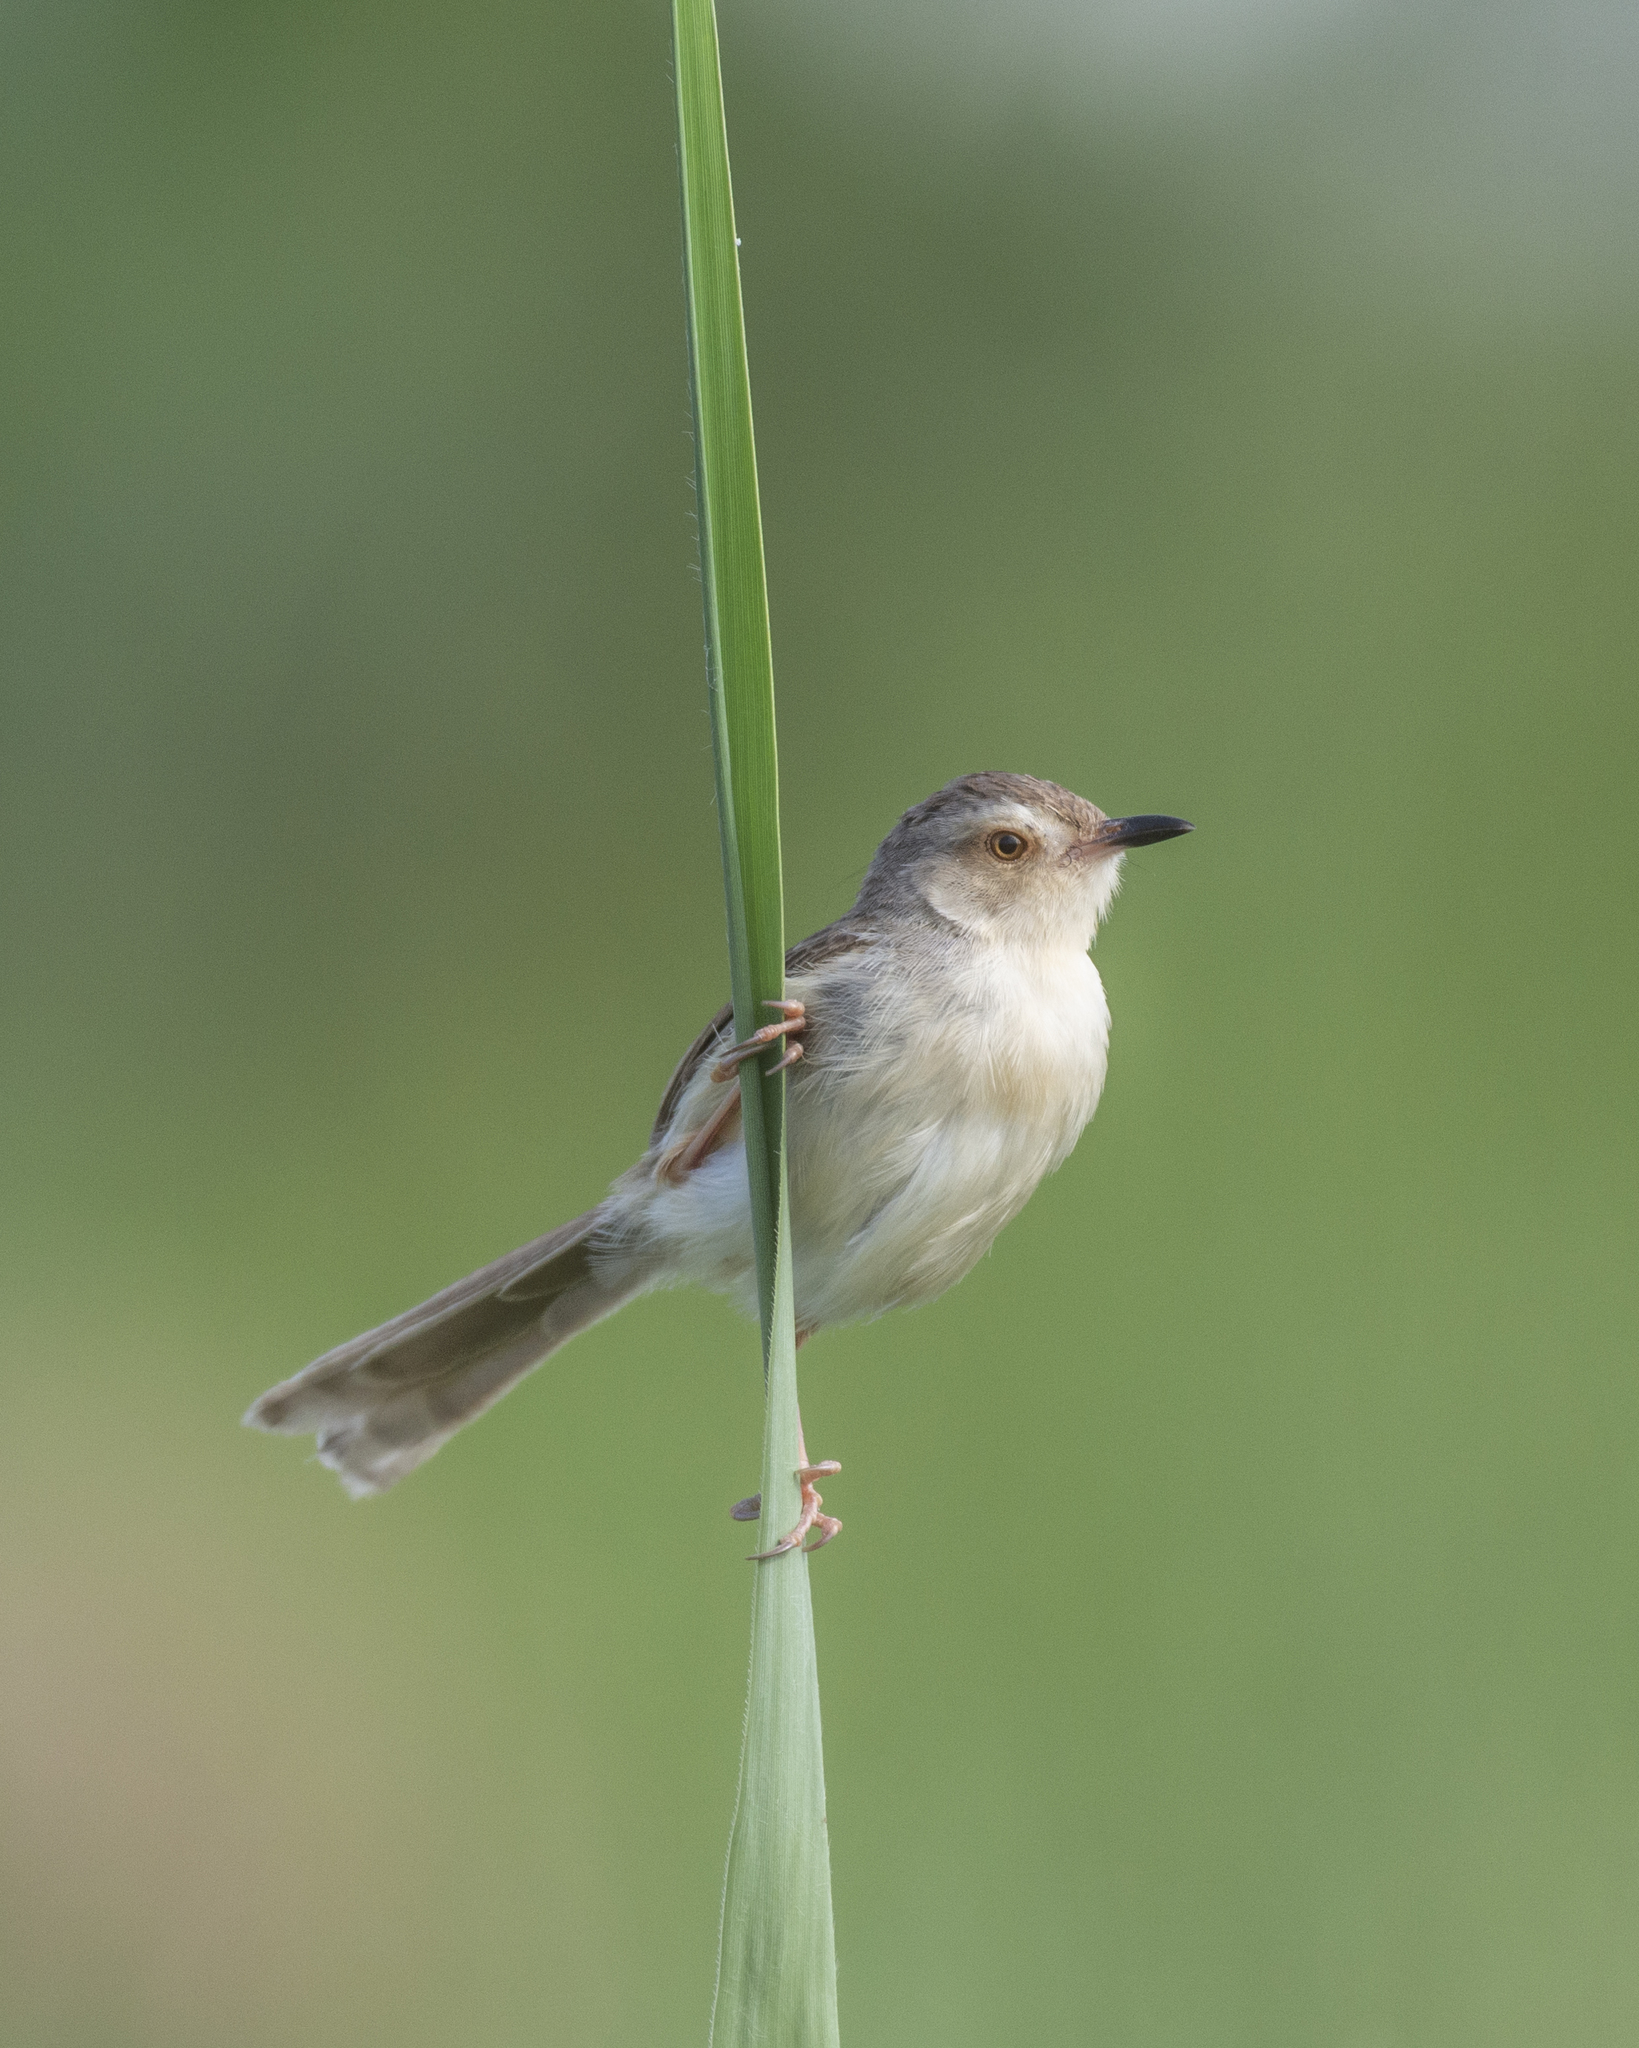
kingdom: Animalia
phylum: Chordata
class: Aves
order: Passeriformes
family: Cisticolidae
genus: Prinia
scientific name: Prinia inornata
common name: Plain prinia
